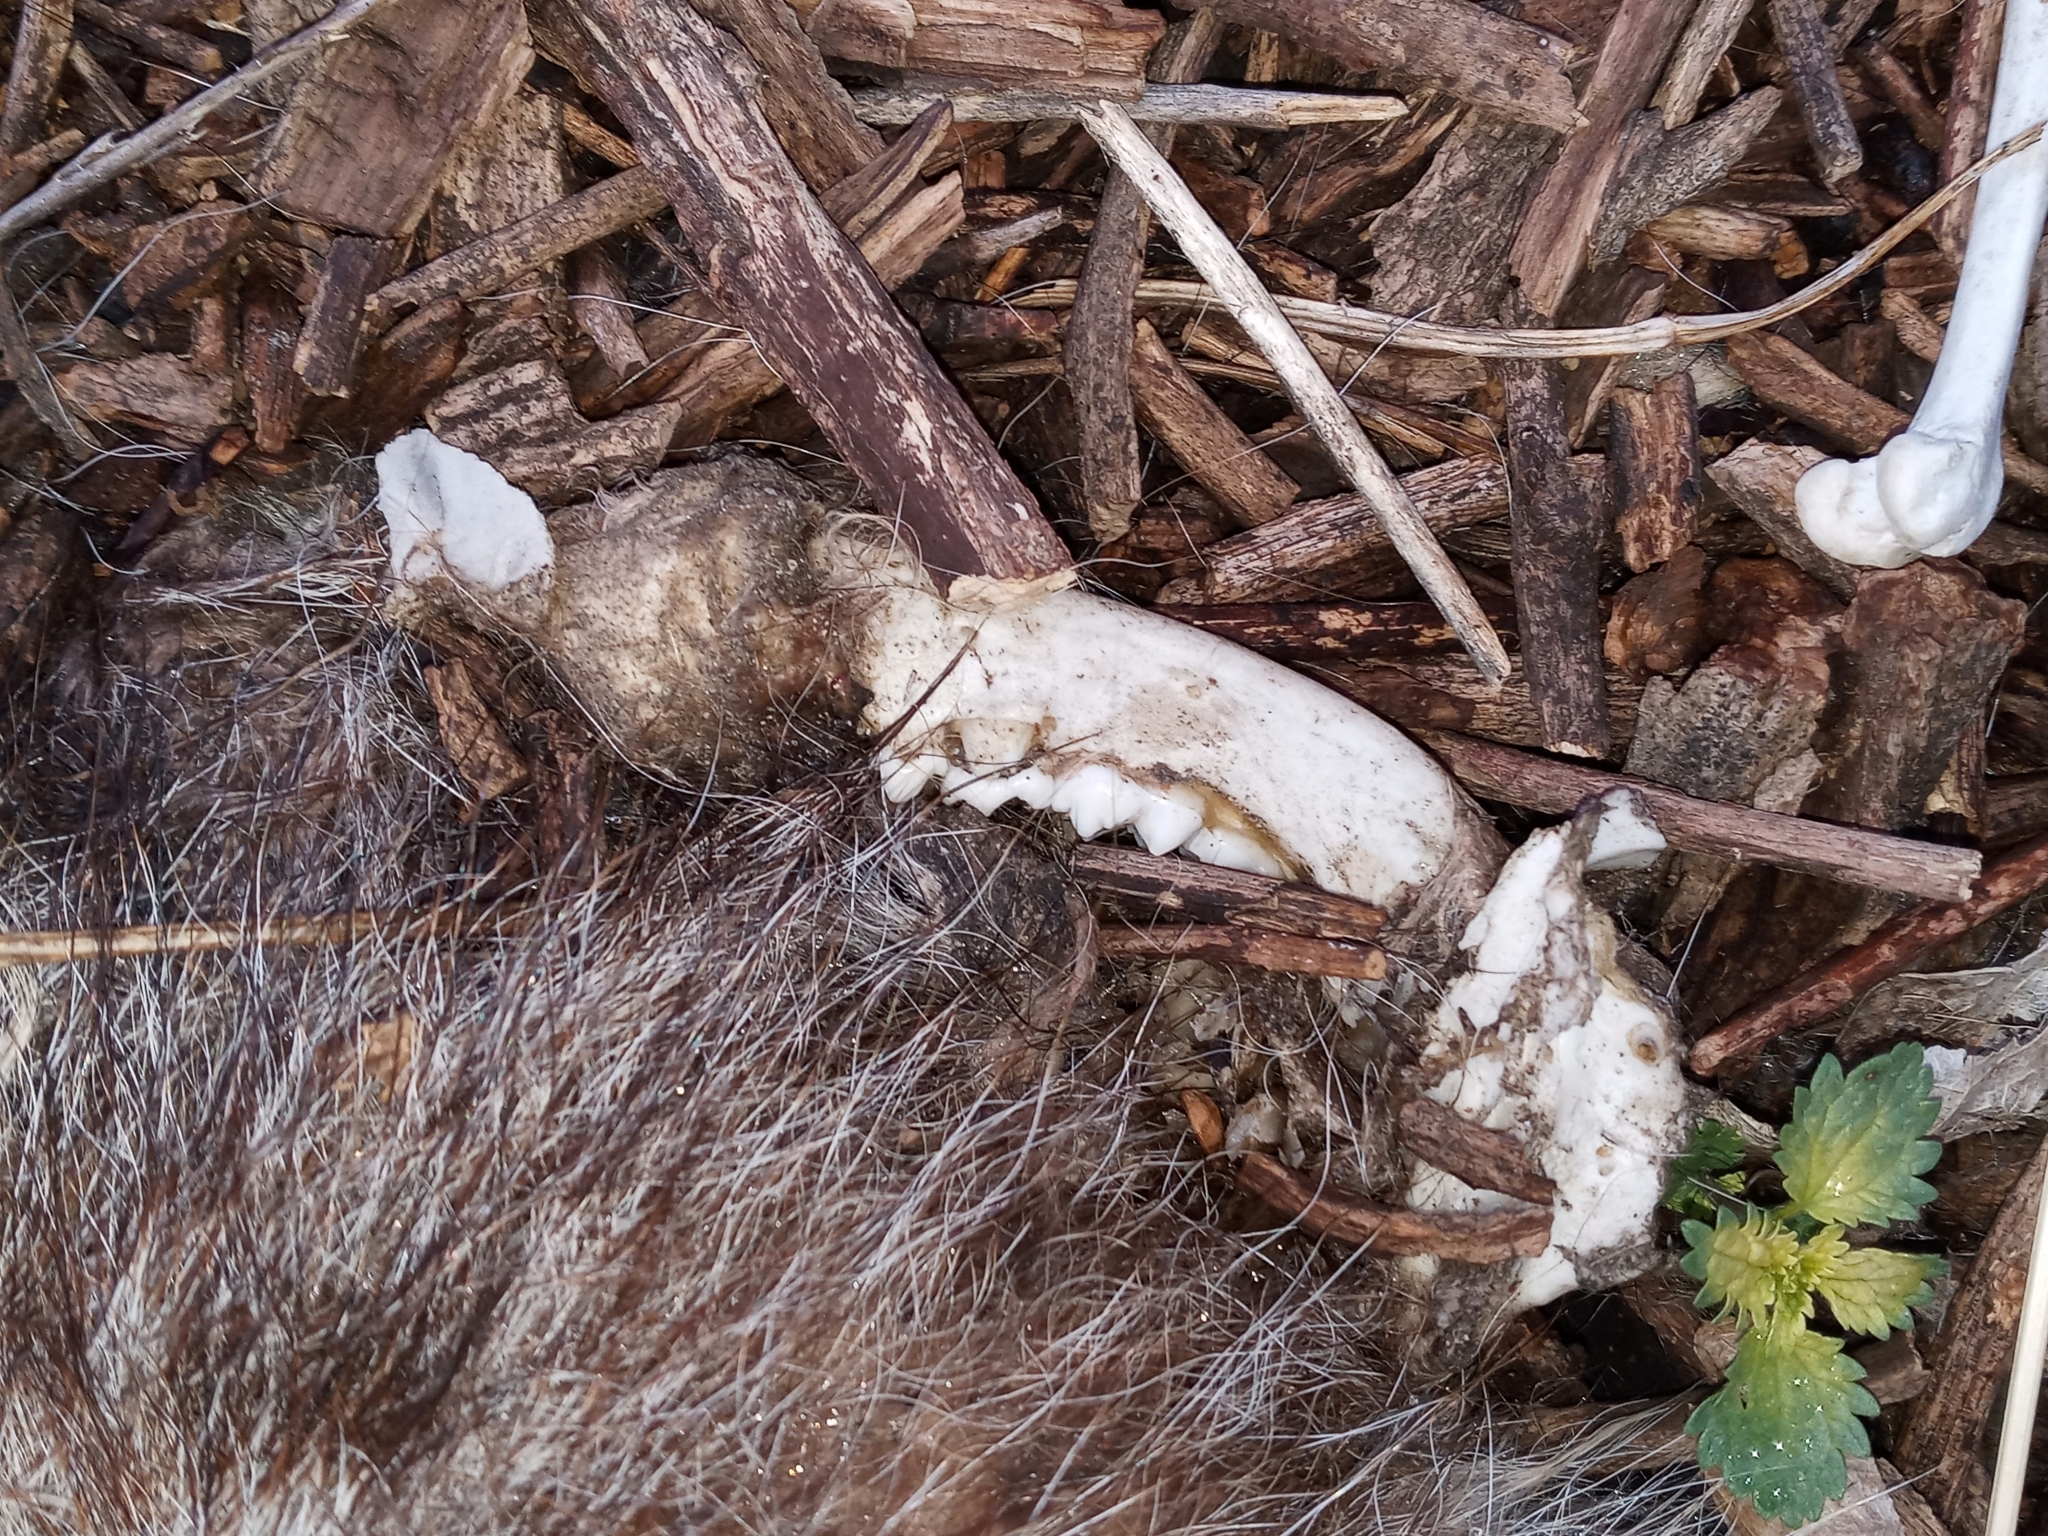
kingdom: Animalia
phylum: Chordata
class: Mammalia
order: Carnivora
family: Procyonidae
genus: Procyon
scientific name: Procyon lotor
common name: Raccoon
